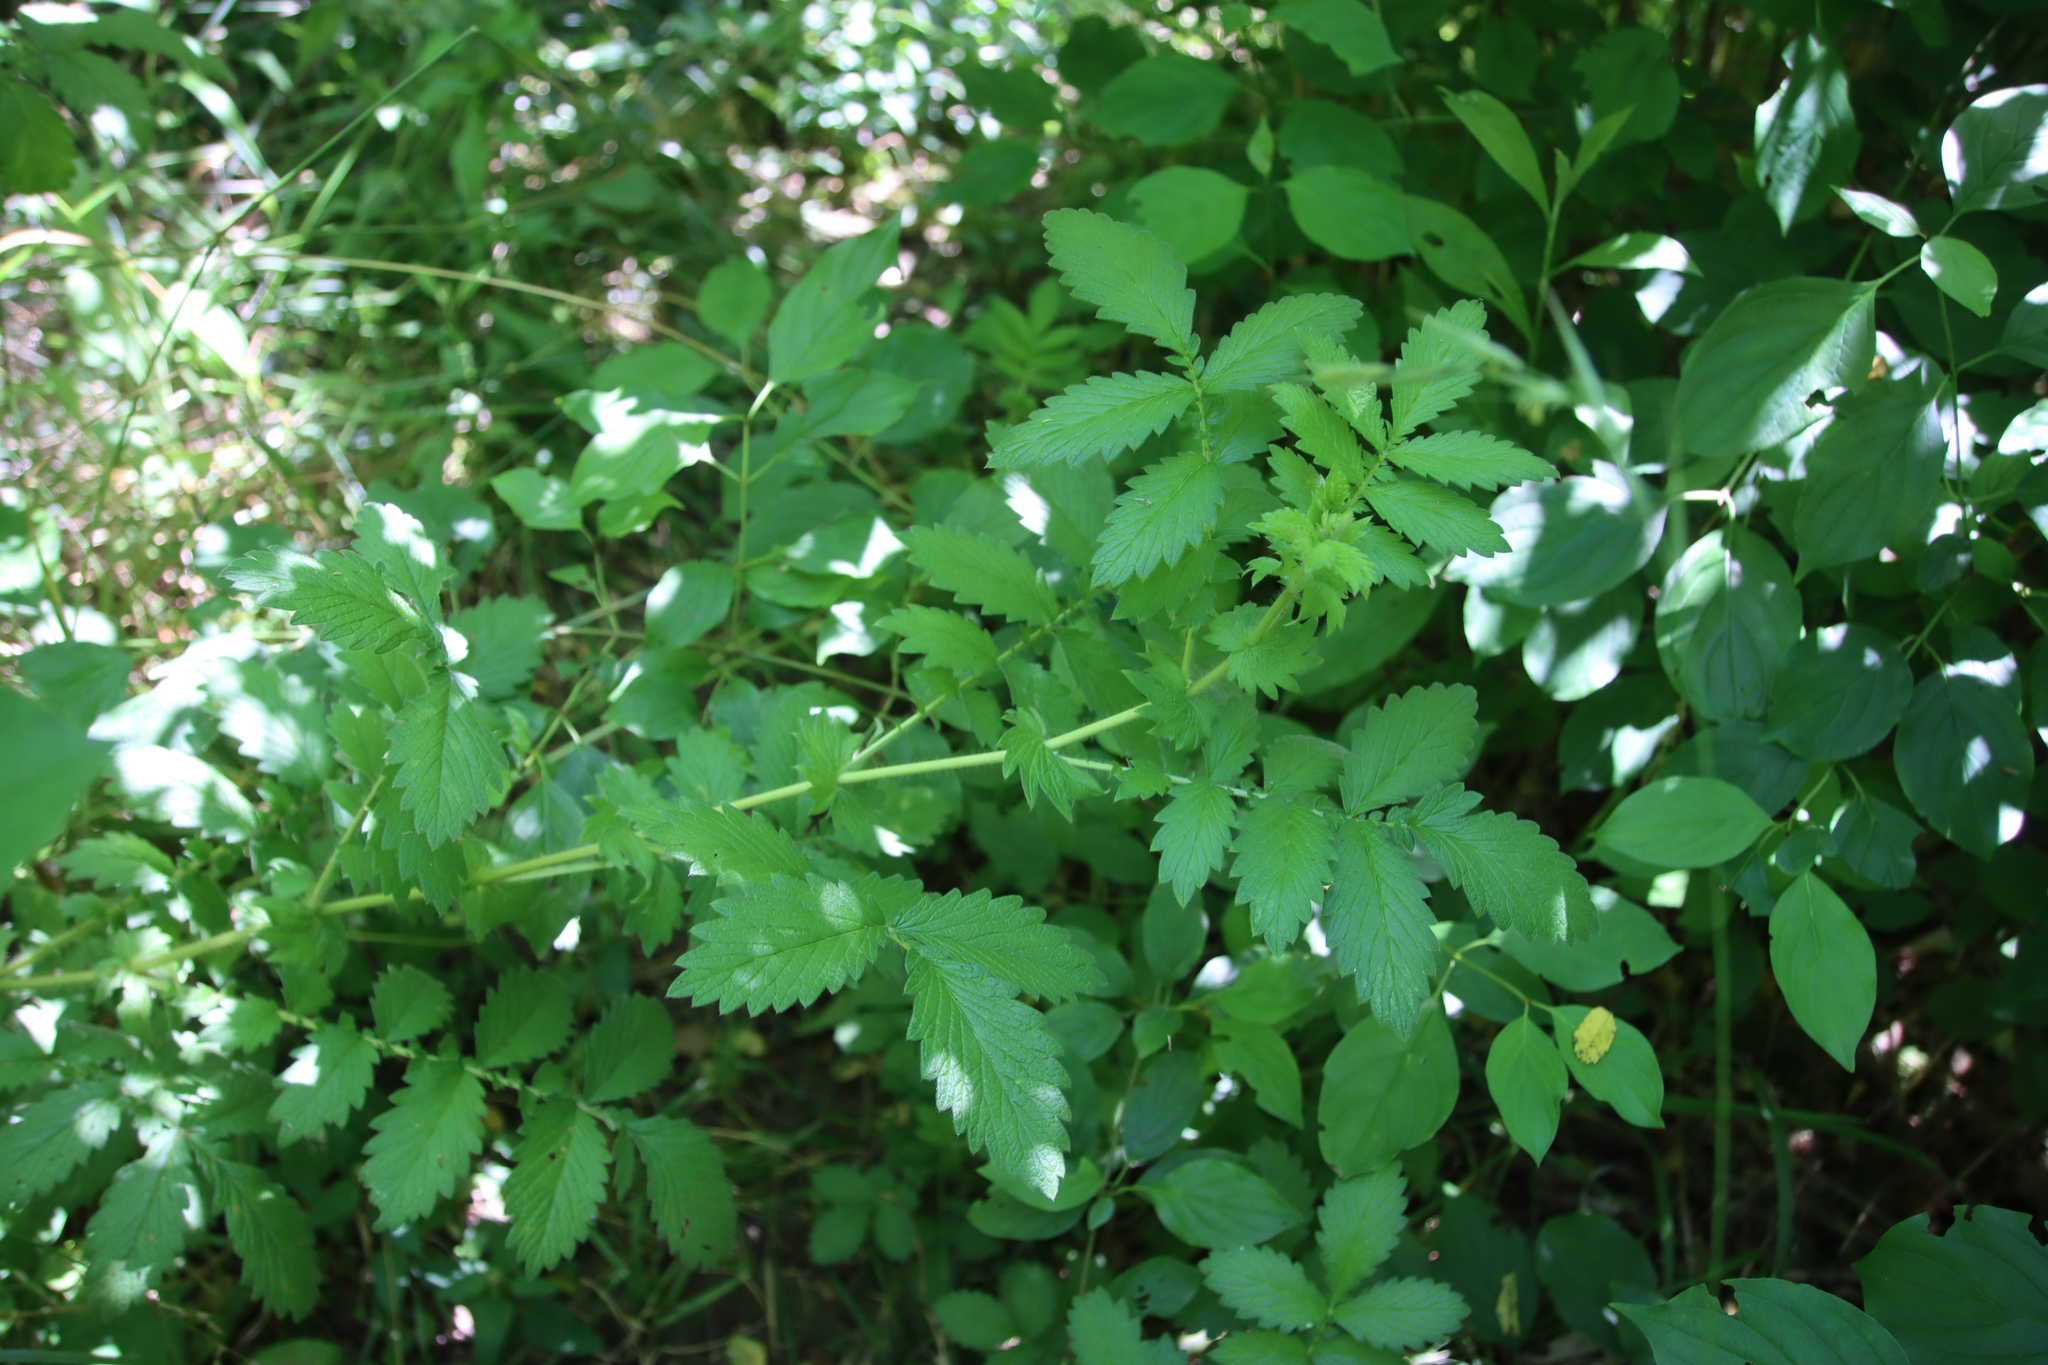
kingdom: Plantae
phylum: Tracheophyta
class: Magnoliopsida
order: Rosales
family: Rosaceae
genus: Agrimonia
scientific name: Agrimonia eupatoria
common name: Agrimony
